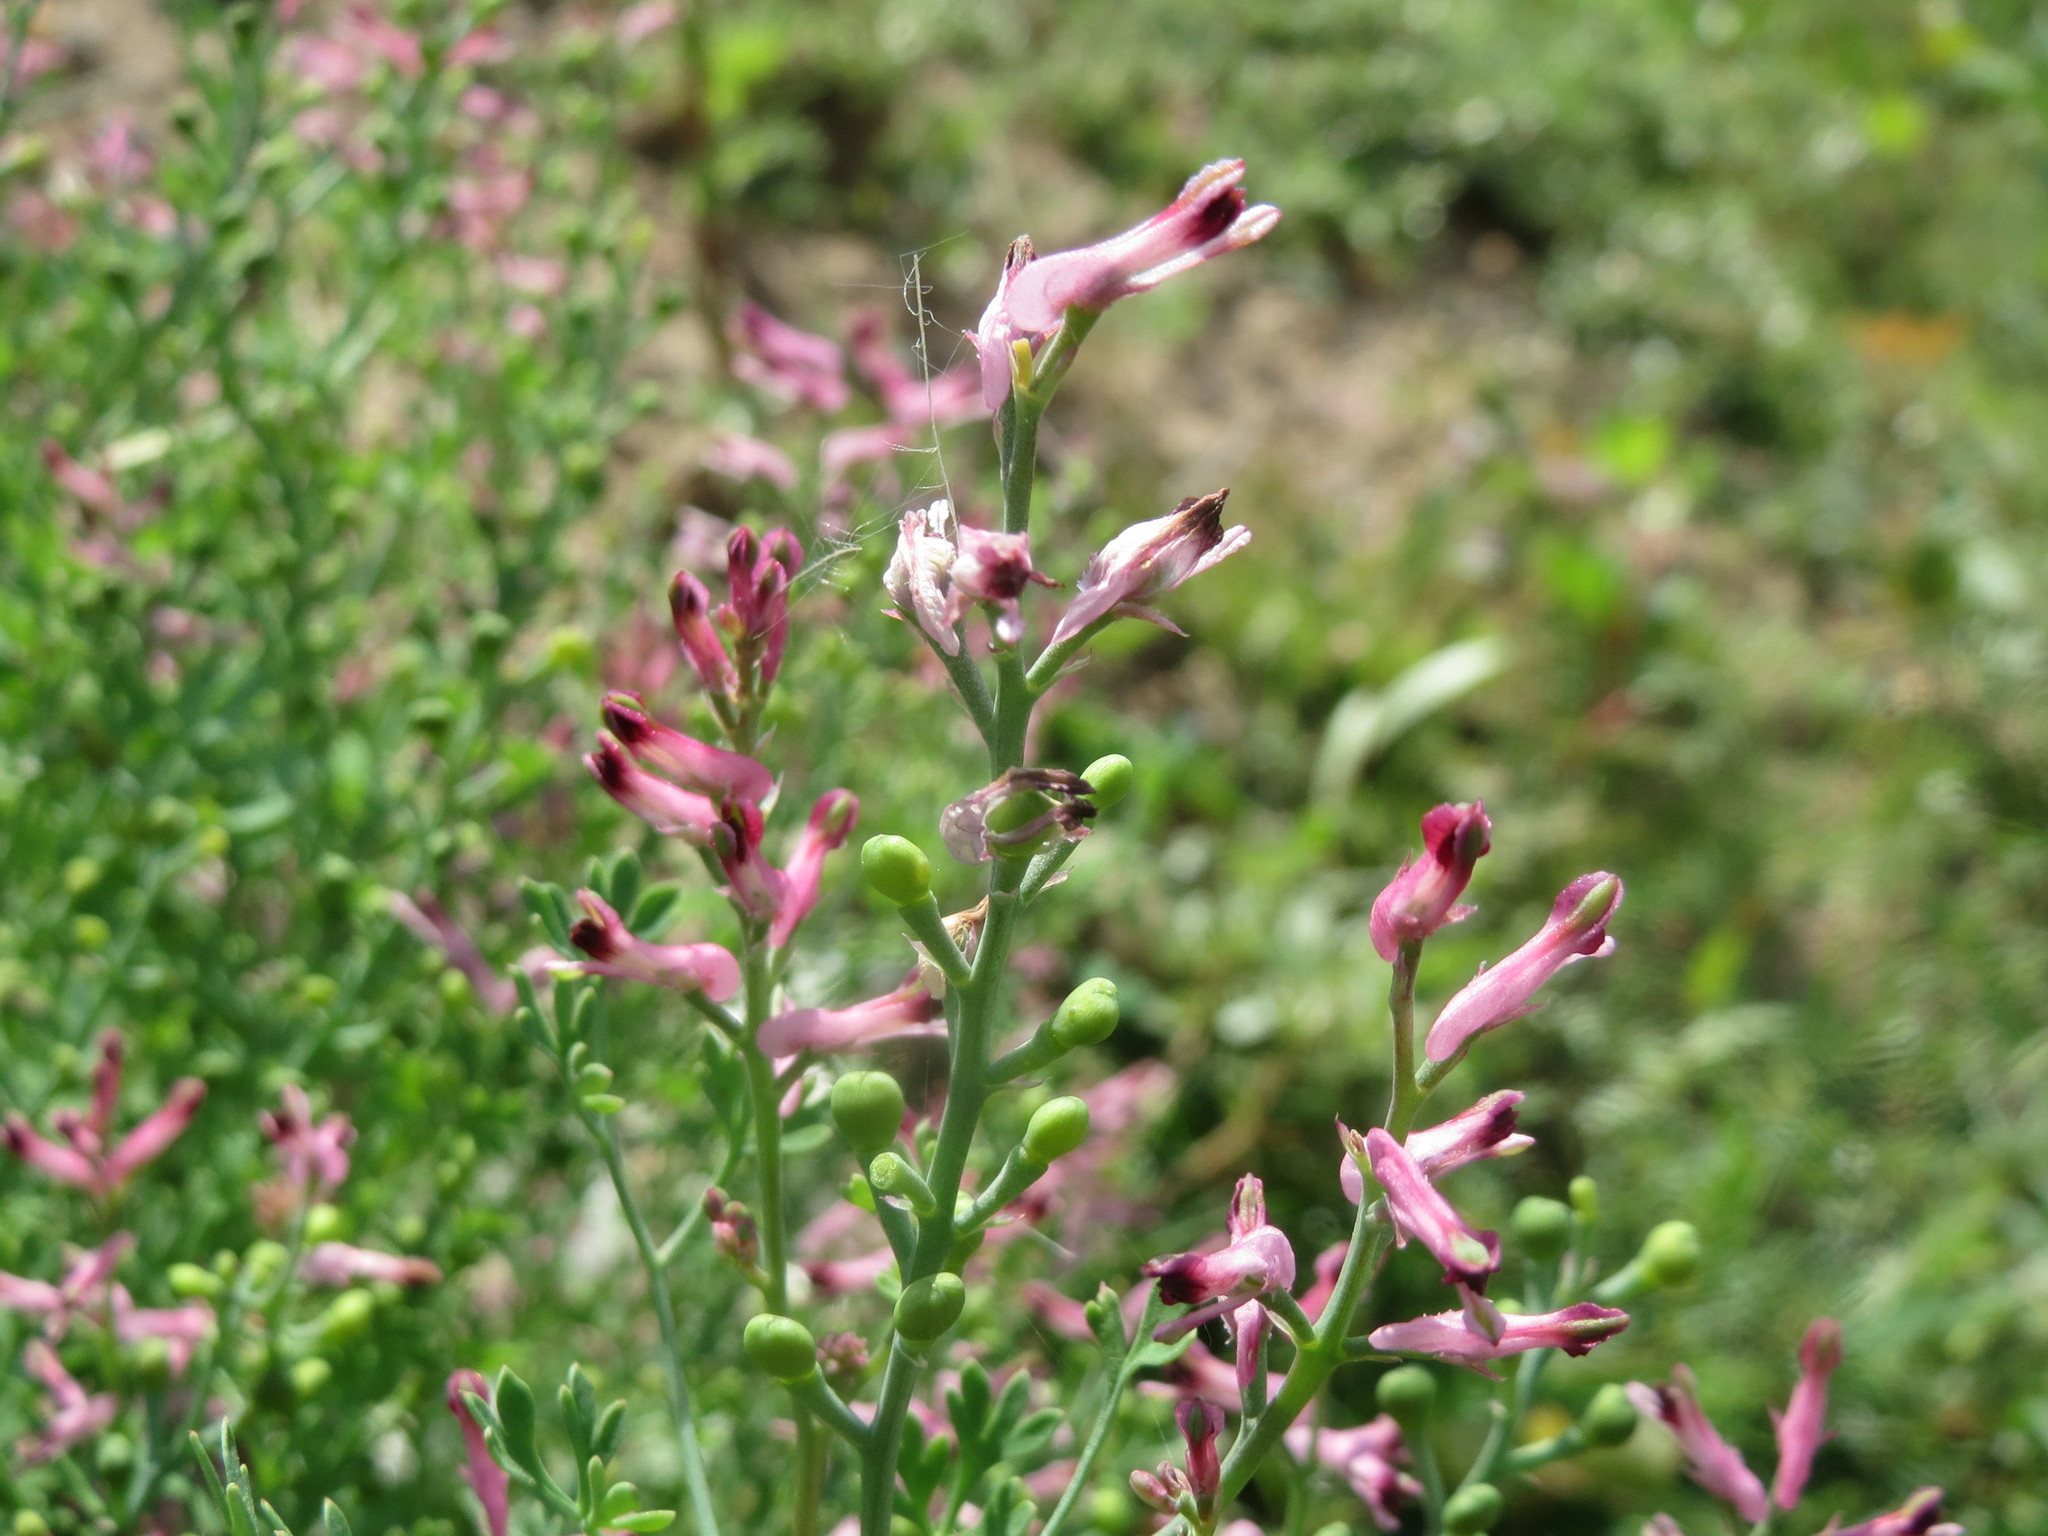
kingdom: Plantae
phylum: Tracheophyta
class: Magnoliopsida
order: Ranunculales
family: Papaveraceae
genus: Fumaria
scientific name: Fumaria officinalis
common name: Common fumitory
